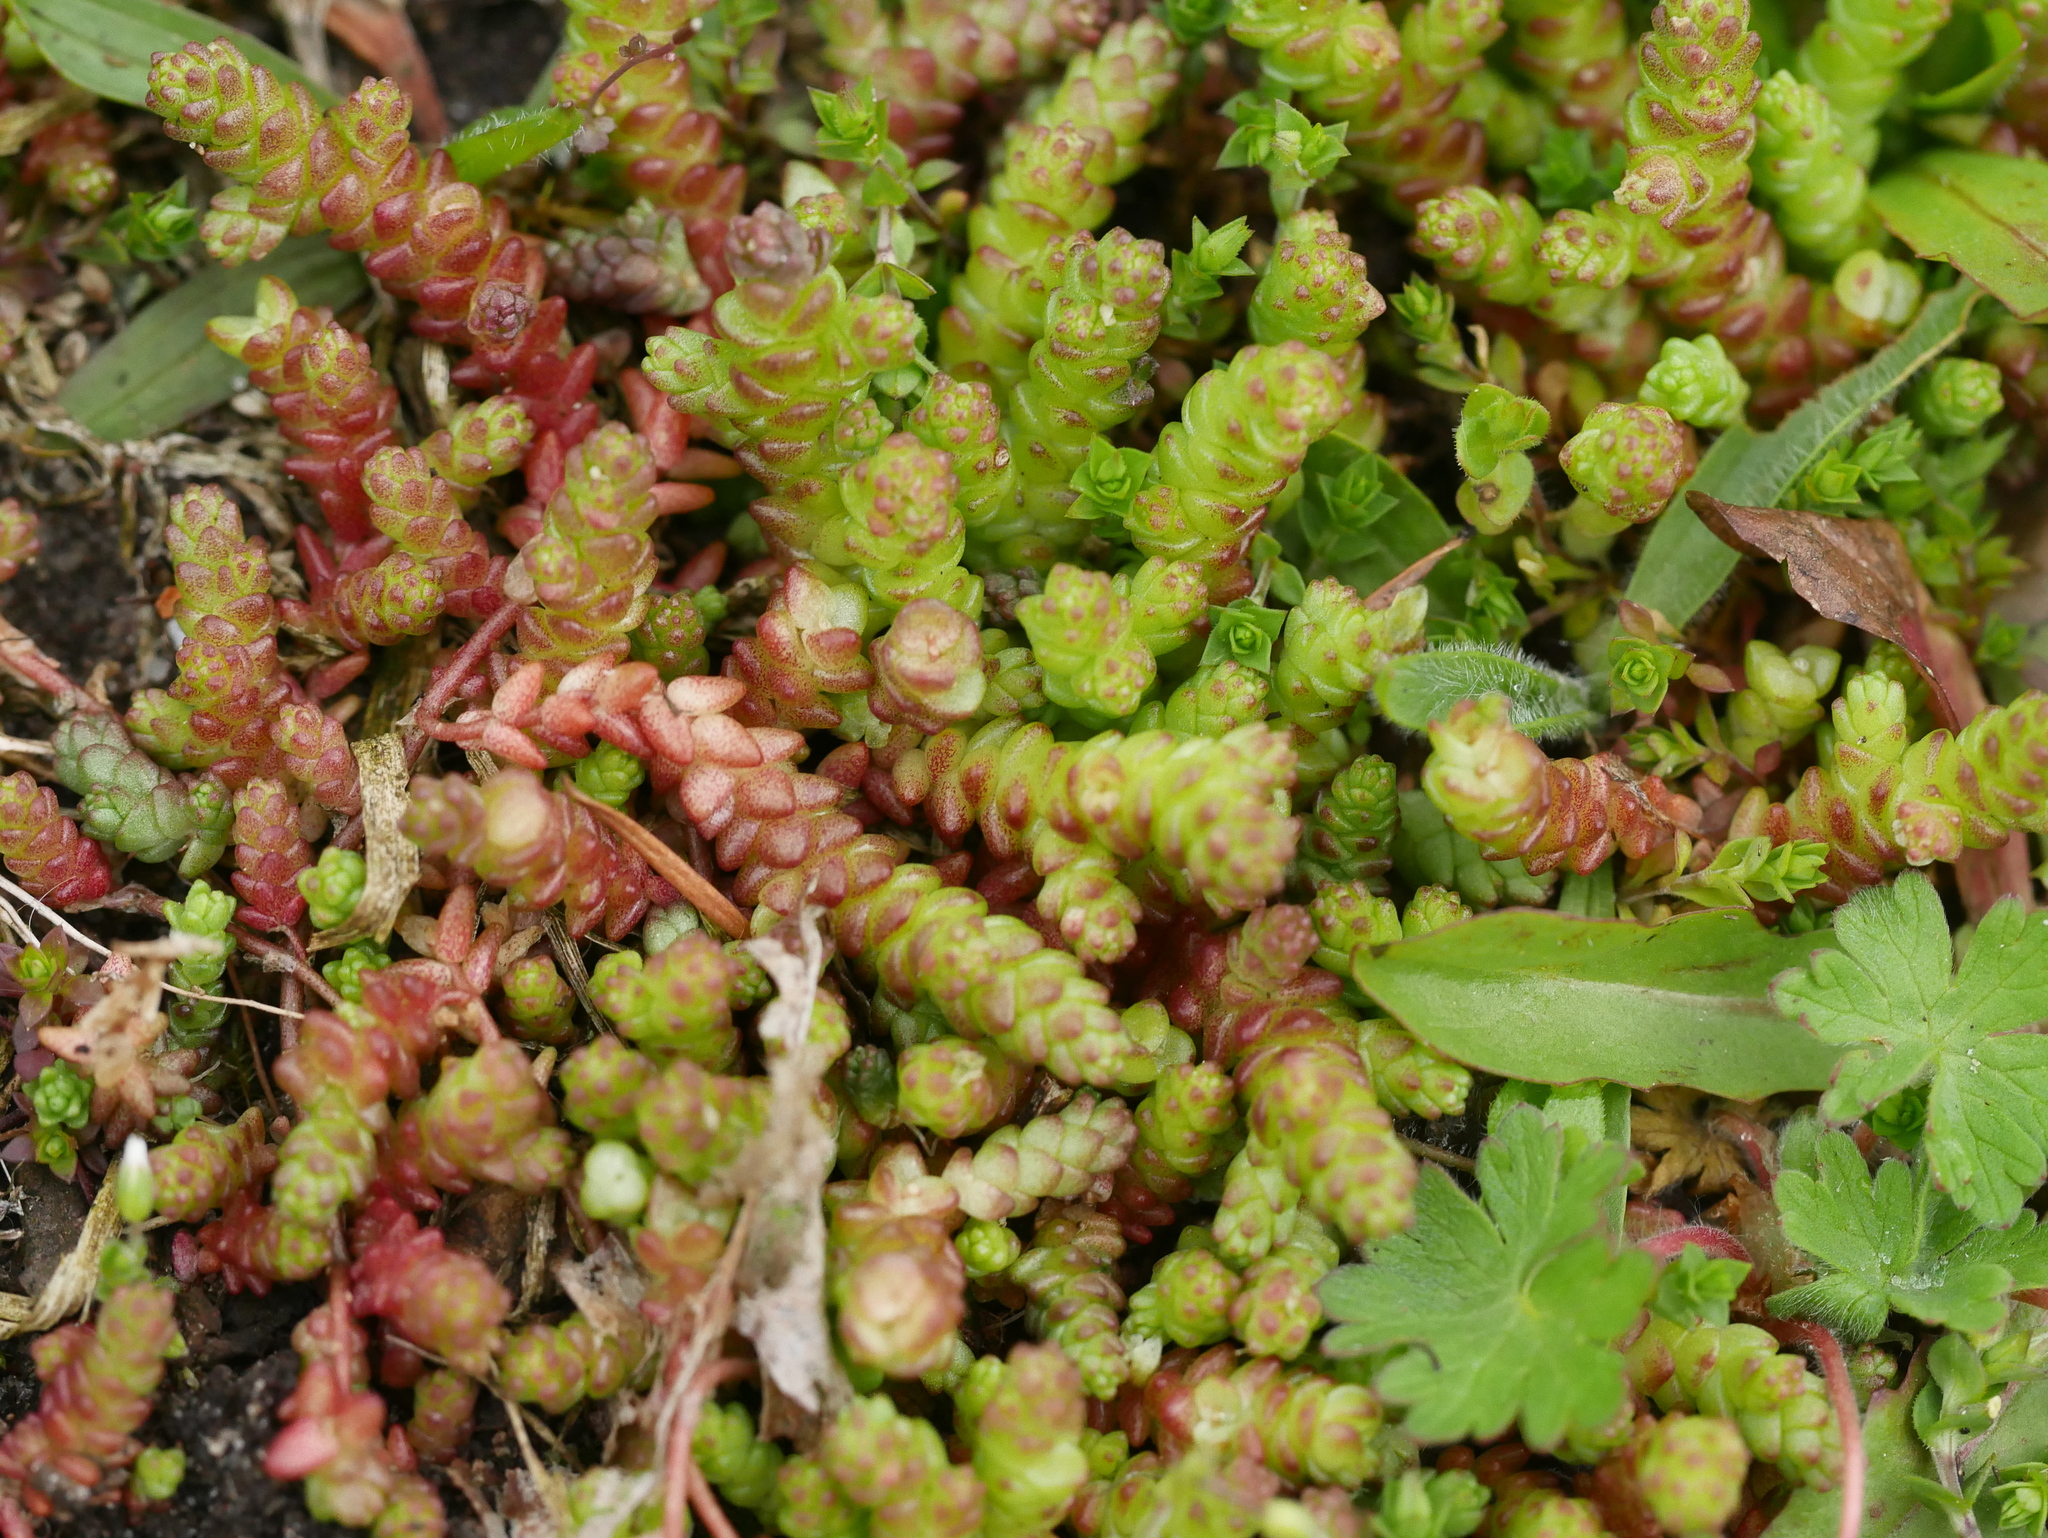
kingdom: Plantae
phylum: Tracheophyta
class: Magnoliopsida
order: Saxifragales
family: Crassulaceae
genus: Sedum
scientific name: Sedum acre
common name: Biting stonecrop
